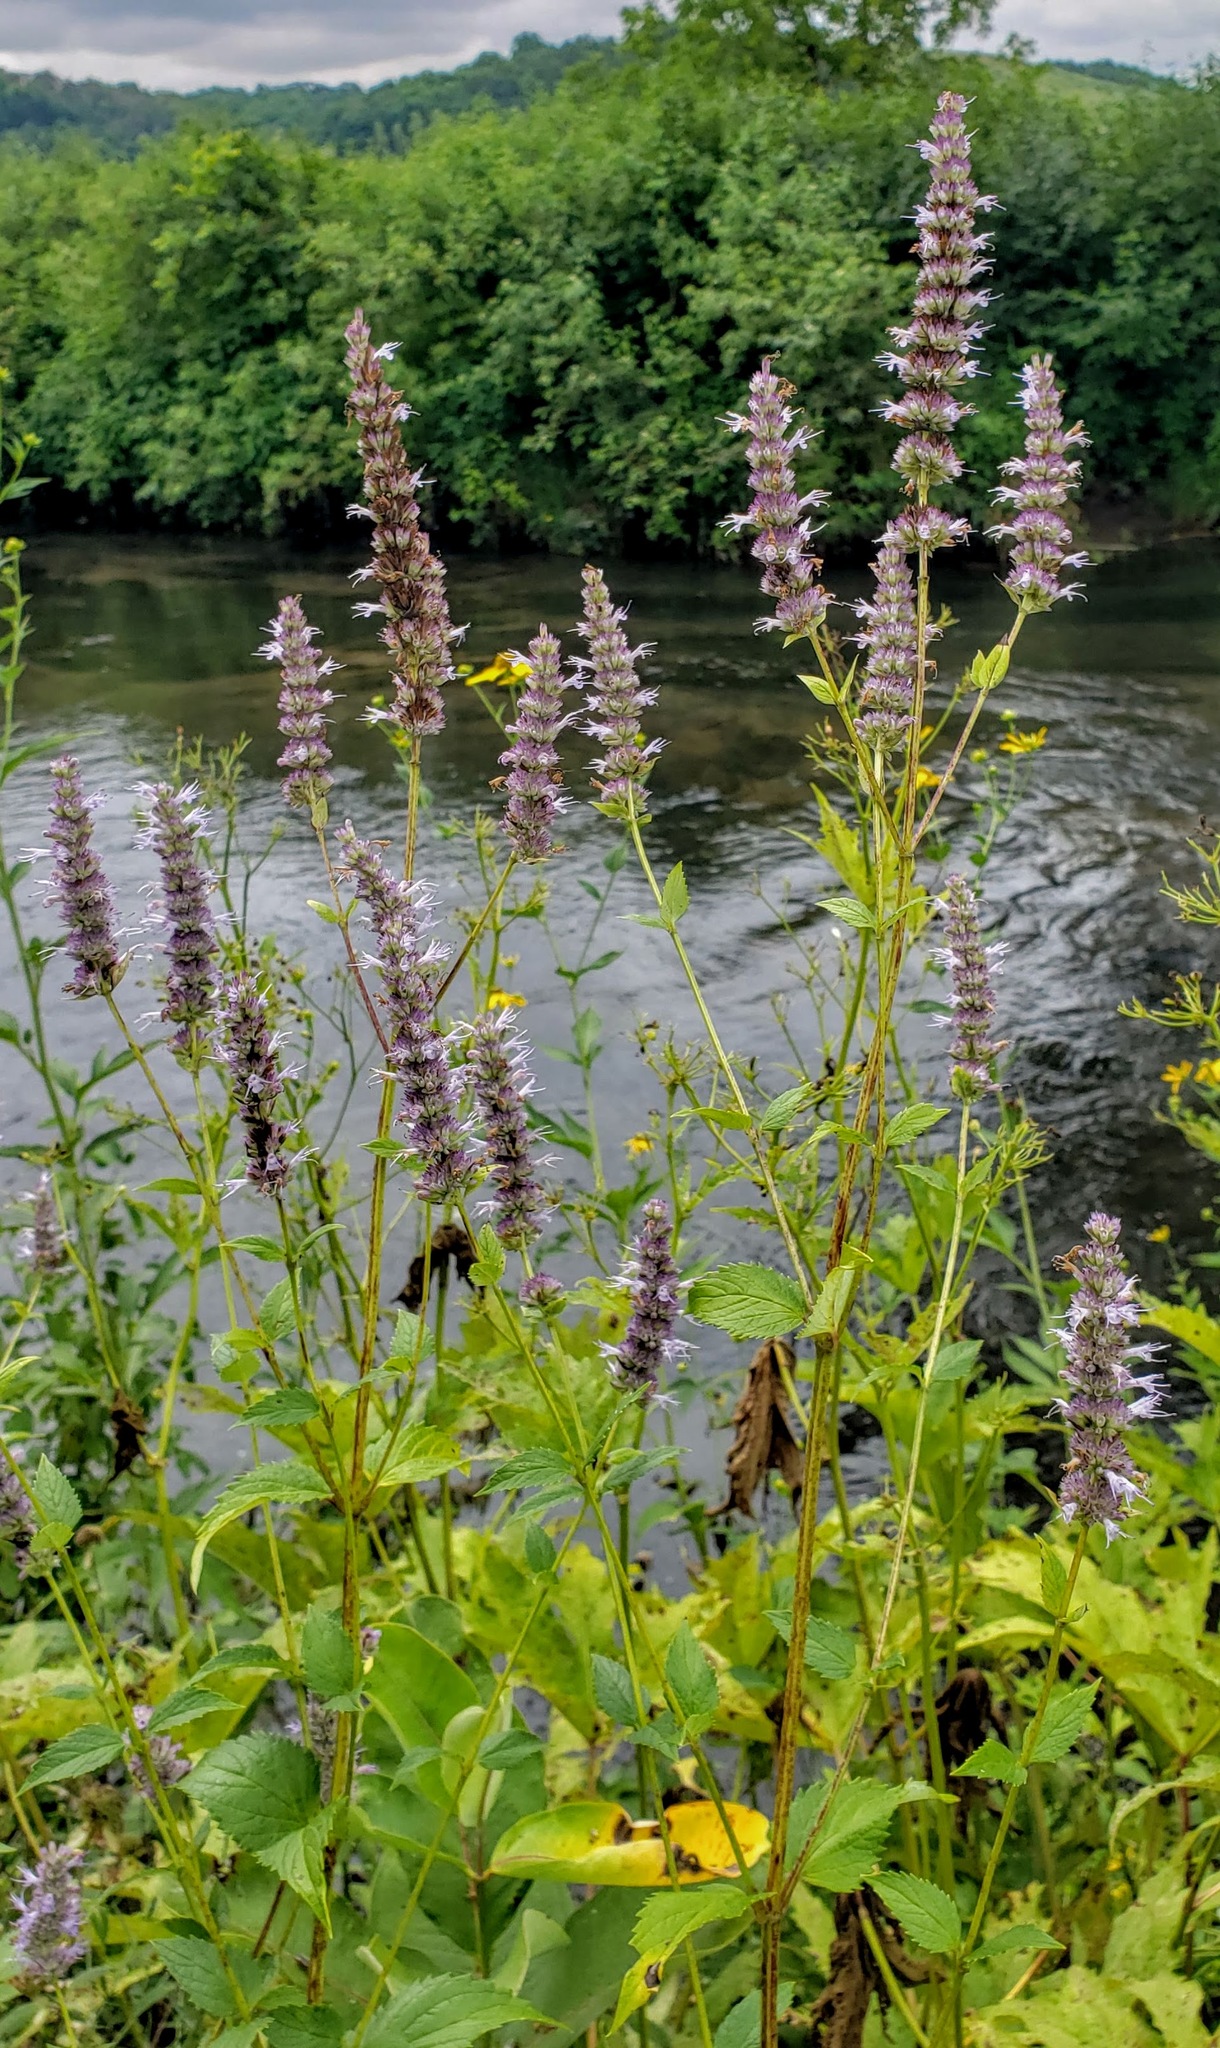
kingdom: Plantae
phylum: Tracheophyta
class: Magnoliopsida
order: Lamiales
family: Lamiaceae
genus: Agastache
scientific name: Agastache foeniculum
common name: Anise hyssop
